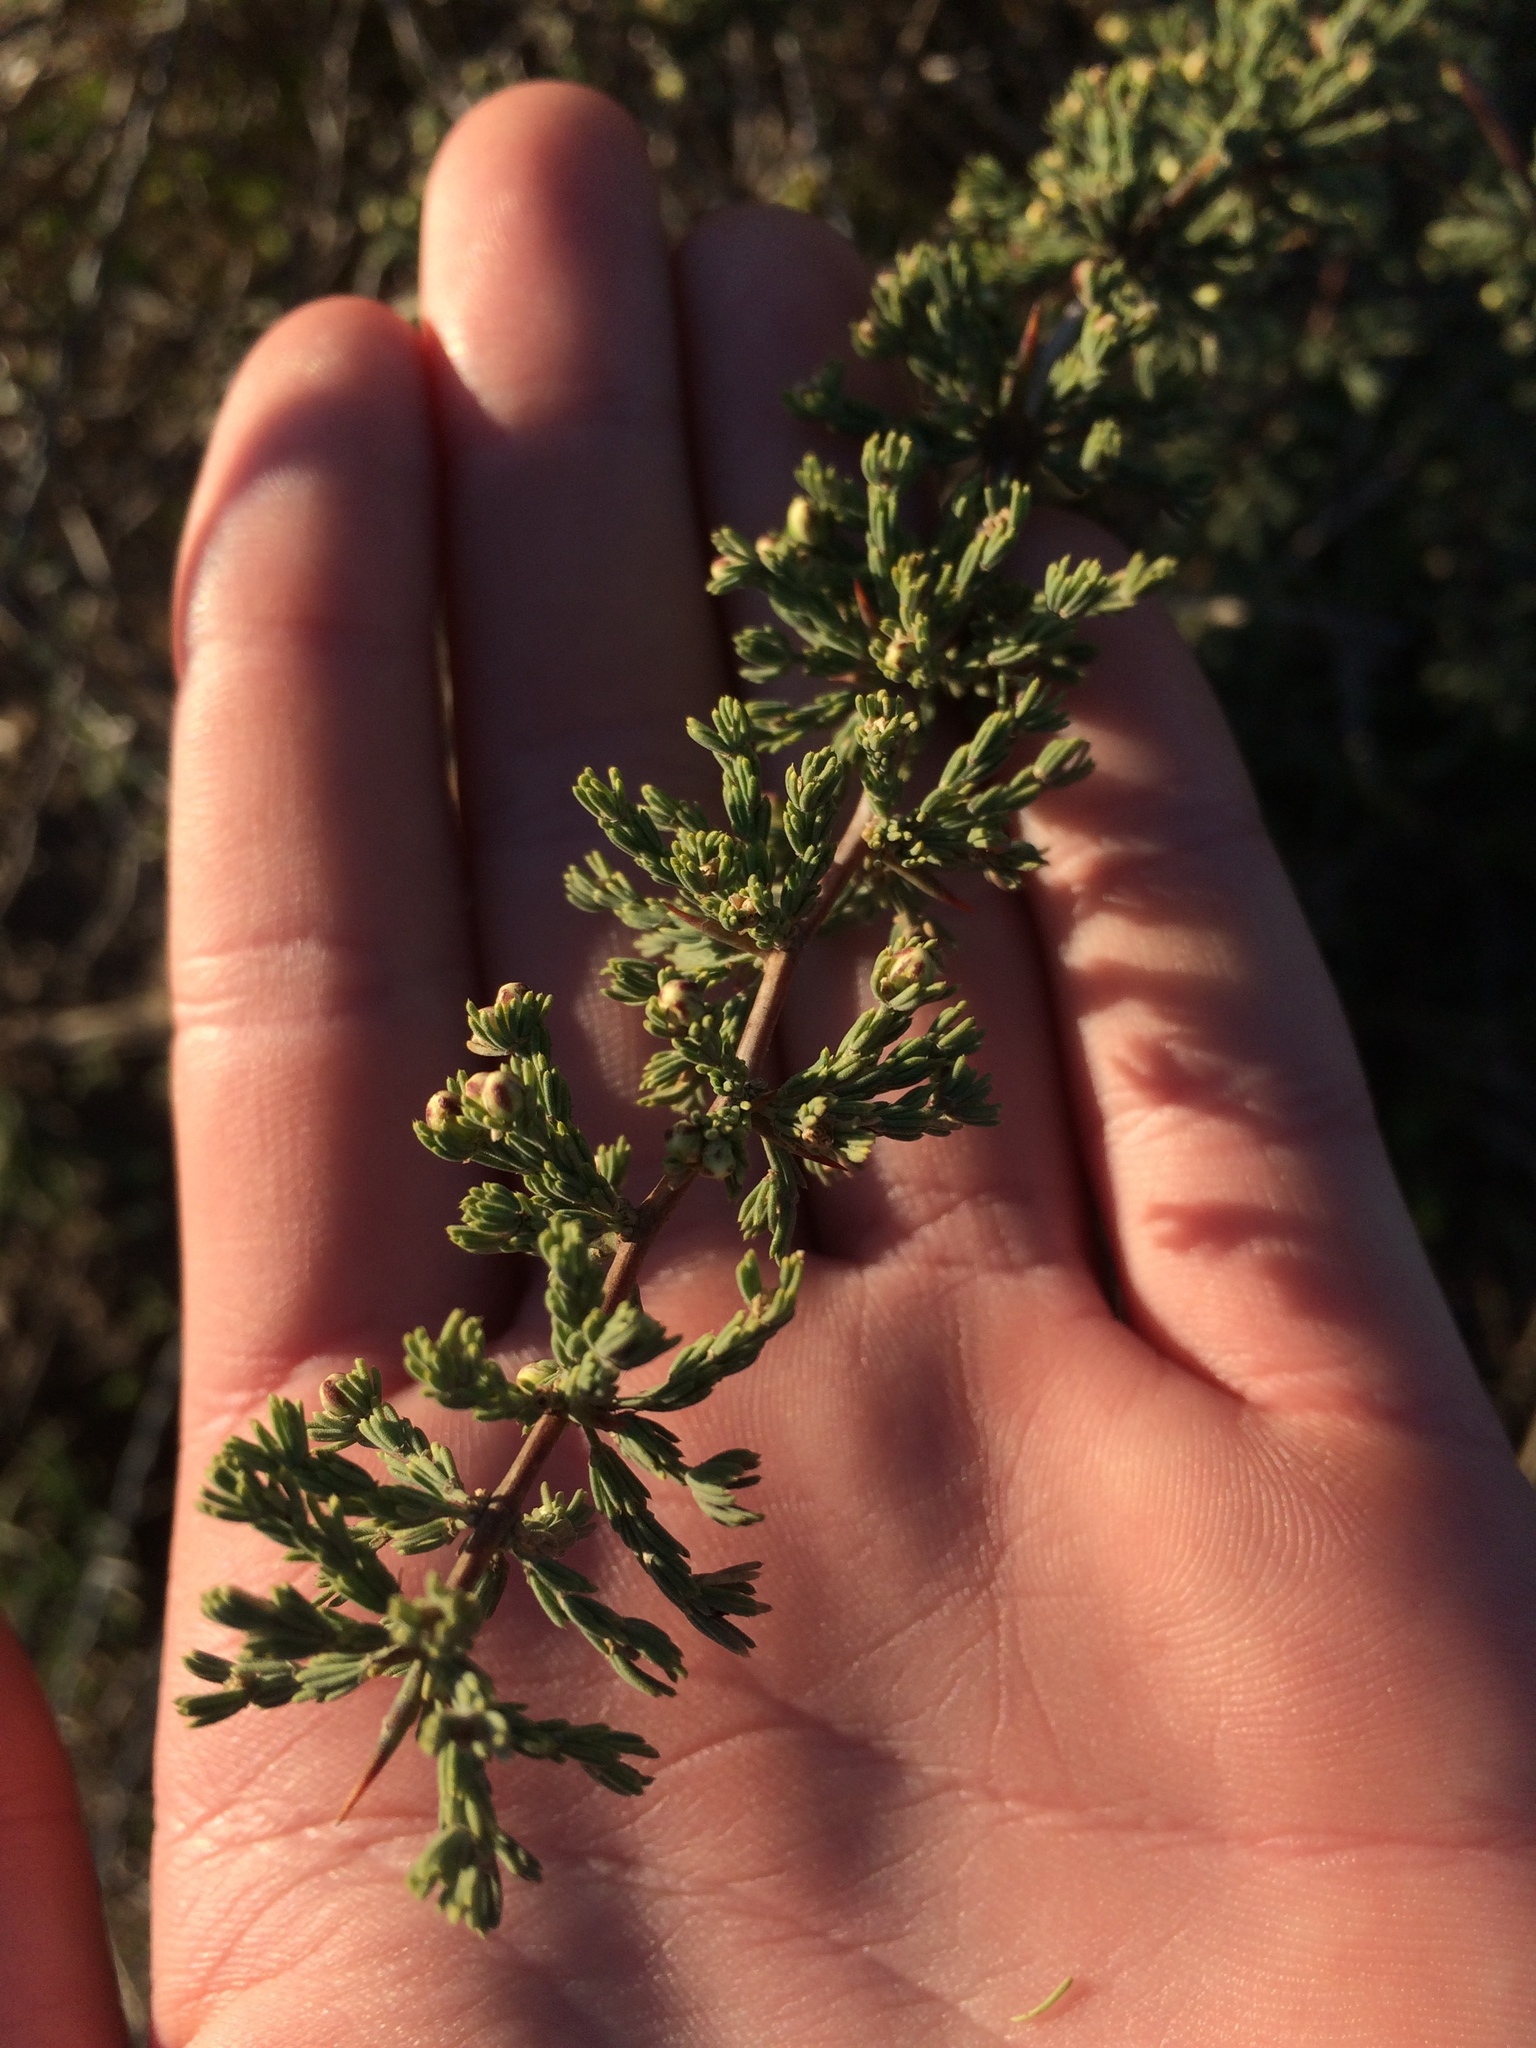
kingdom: Plantae
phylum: Tracheophyta
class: Liliopsida
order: Asparagales
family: Asparagaceae
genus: Asparagus
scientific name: Asparagus capensis
